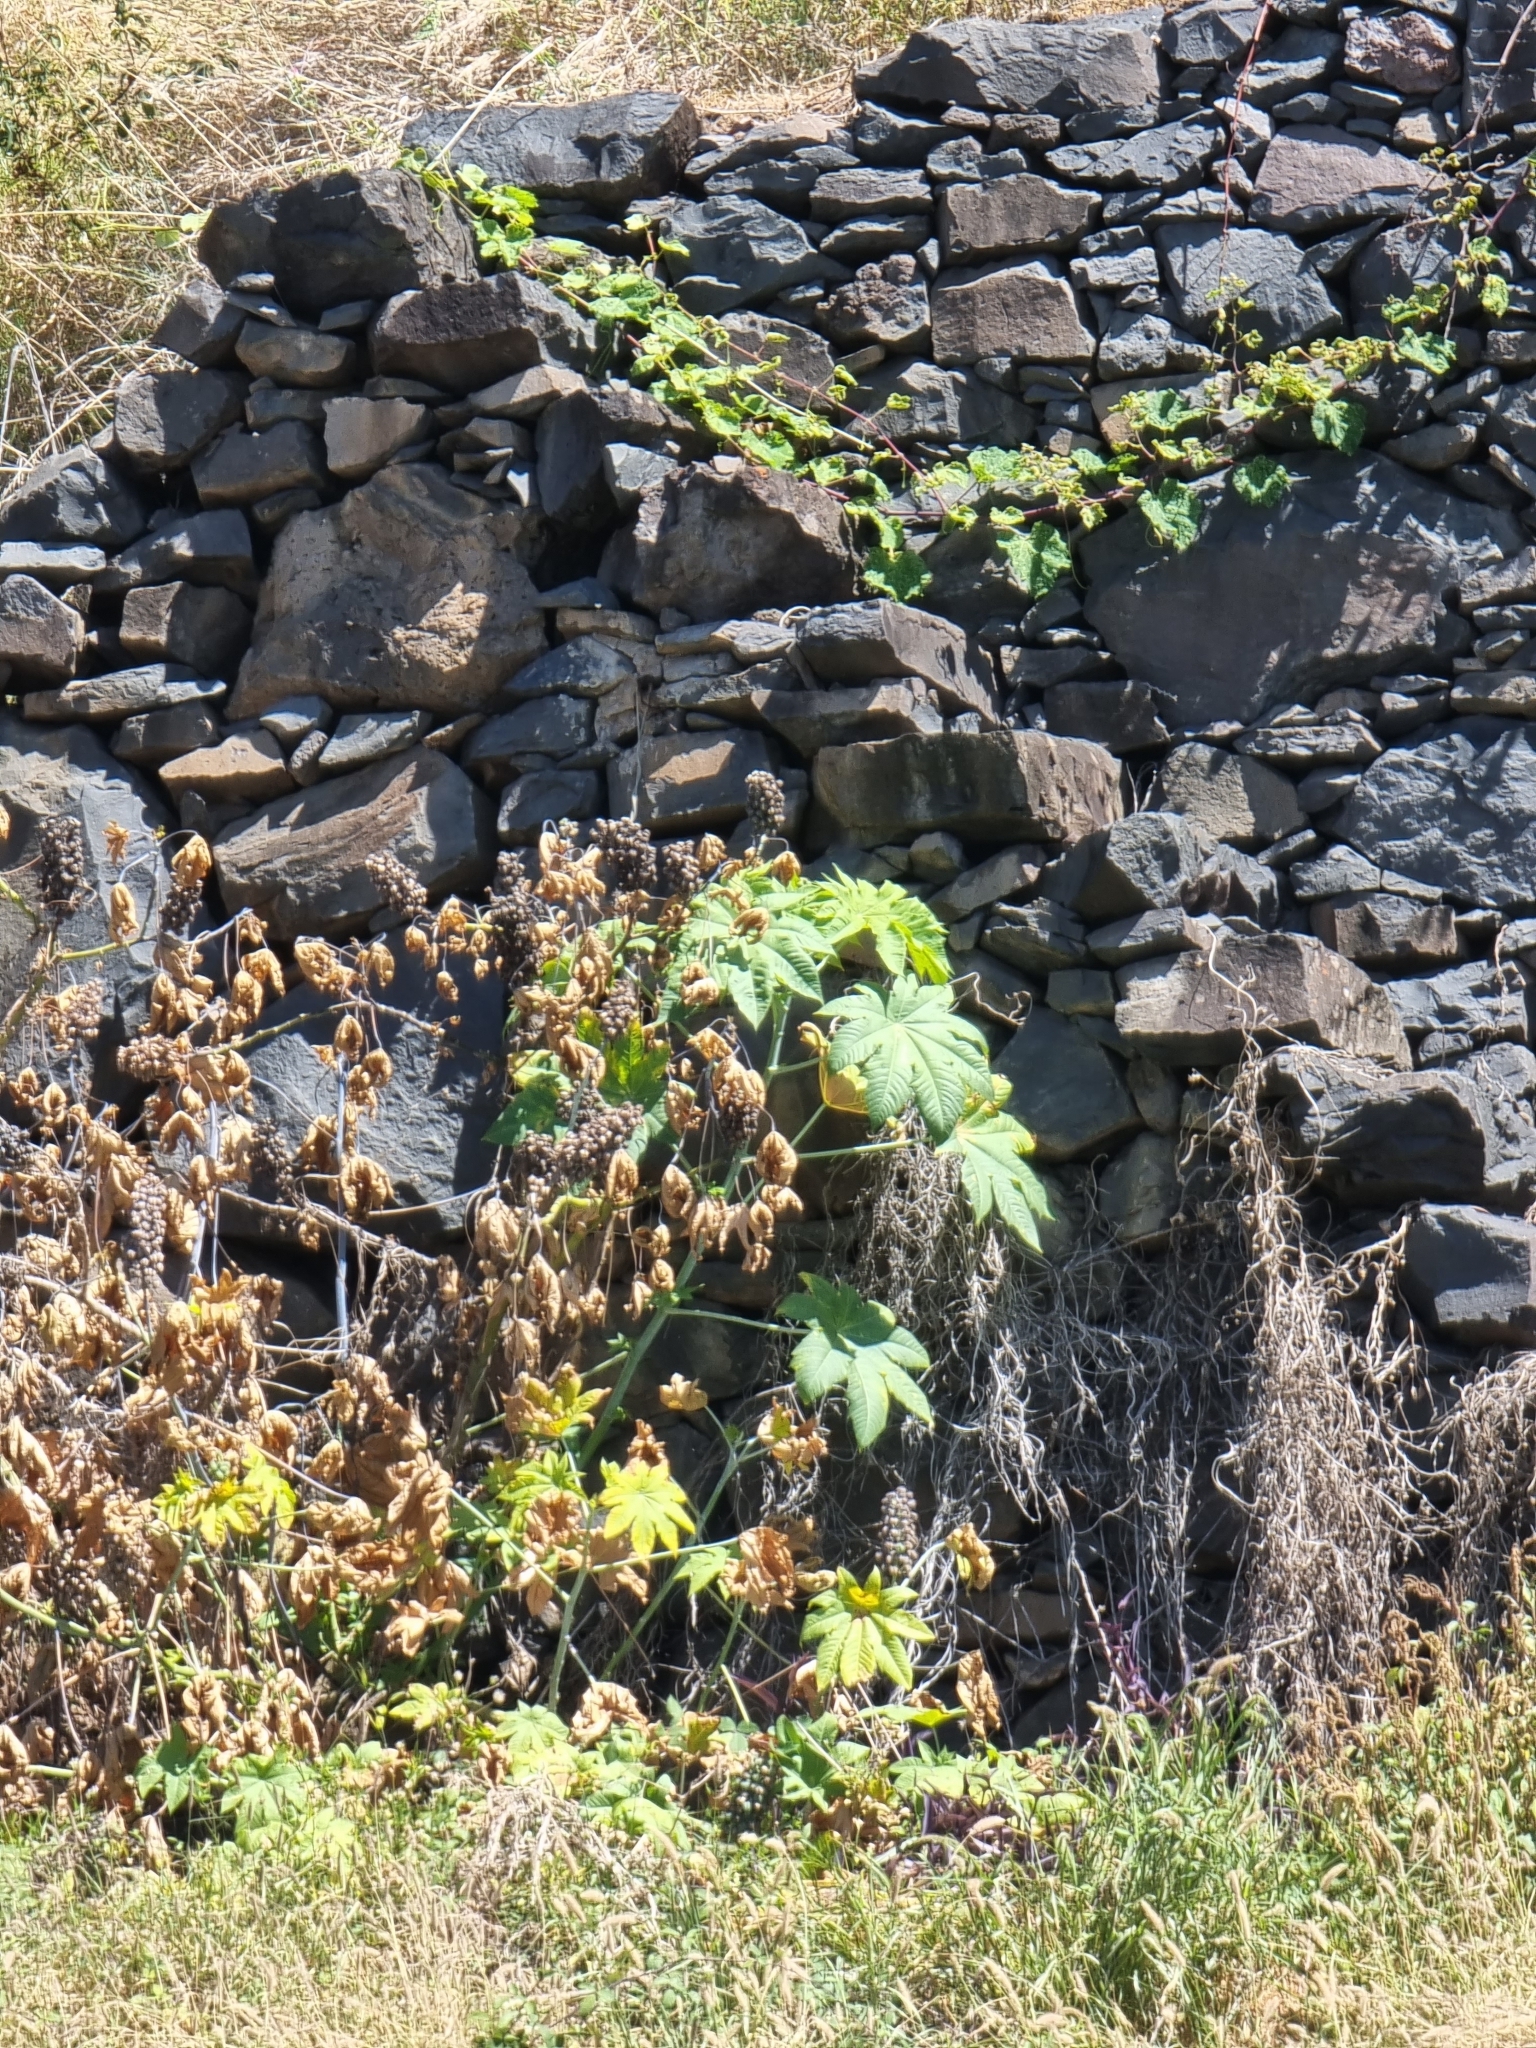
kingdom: Plantae
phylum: Tracheophyta
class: Magnoliopsida
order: Malpighiales
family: Euphorbiaceae
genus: Ricinus
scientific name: Ricinus communis
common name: Castor-oil-plant
